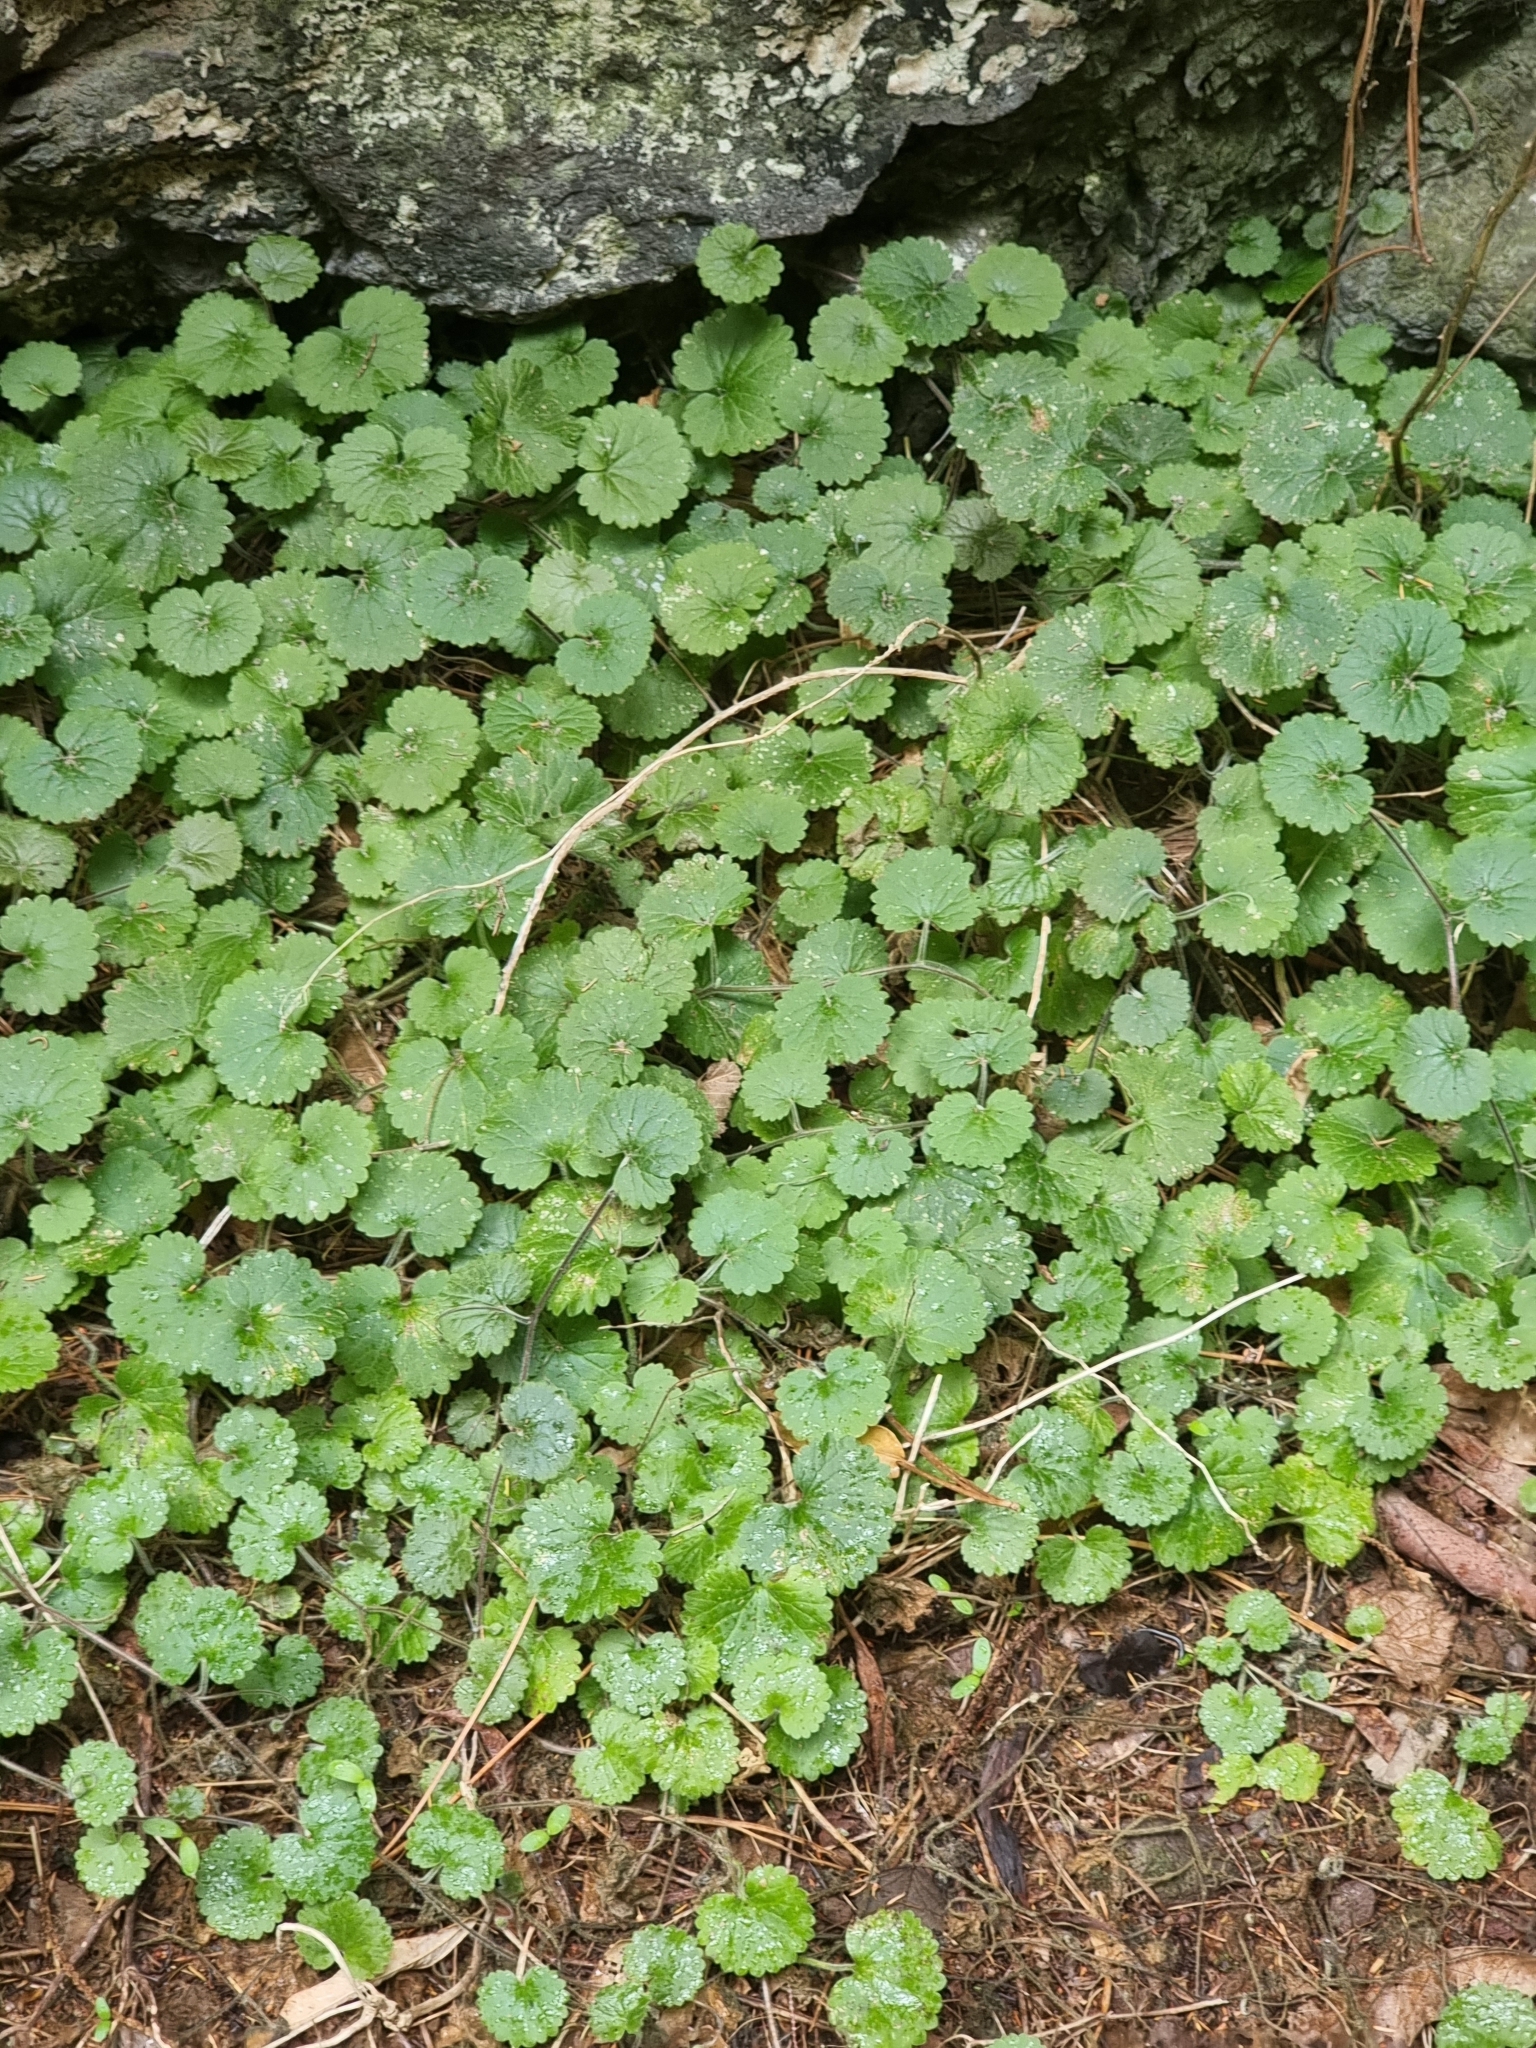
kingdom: Plantae
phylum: Tracheophyta
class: Magnoliopsida
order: Lamiales
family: Plantaginaceae
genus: Sibthorpia
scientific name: Sibthorpia peregrina
